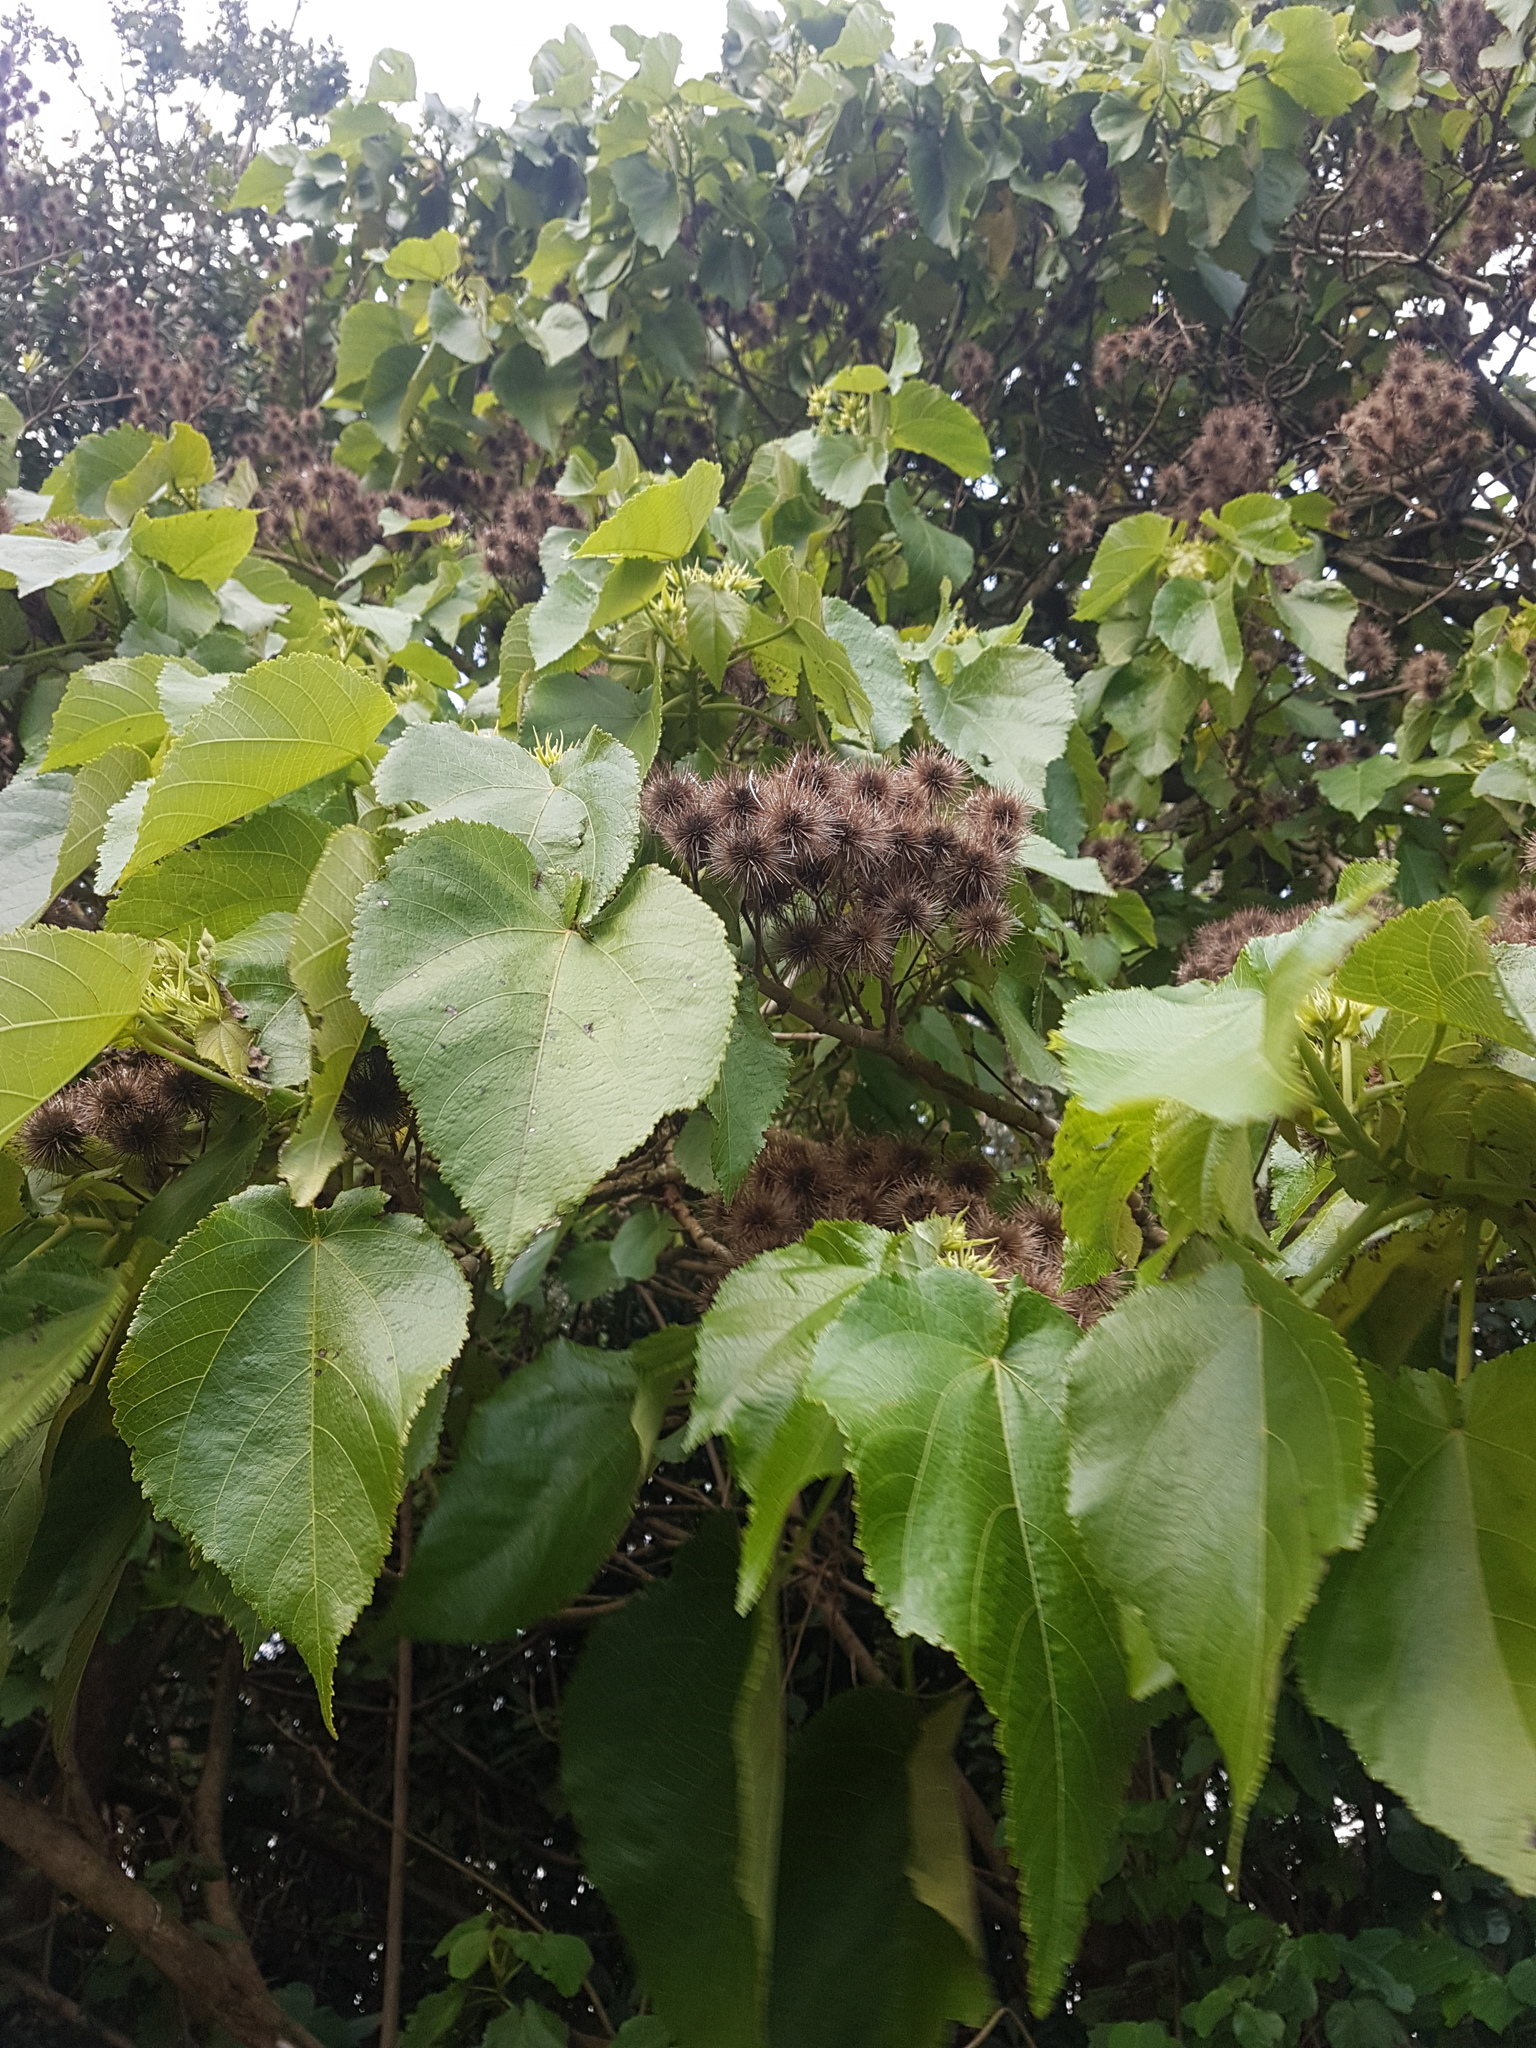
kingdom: Plantae
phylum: Tracheophyta
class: Magnoliopsida
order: Malvales
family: Malvaceae
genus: Entelea
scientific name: Entelea arborescens
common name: New zealand-mulberry
